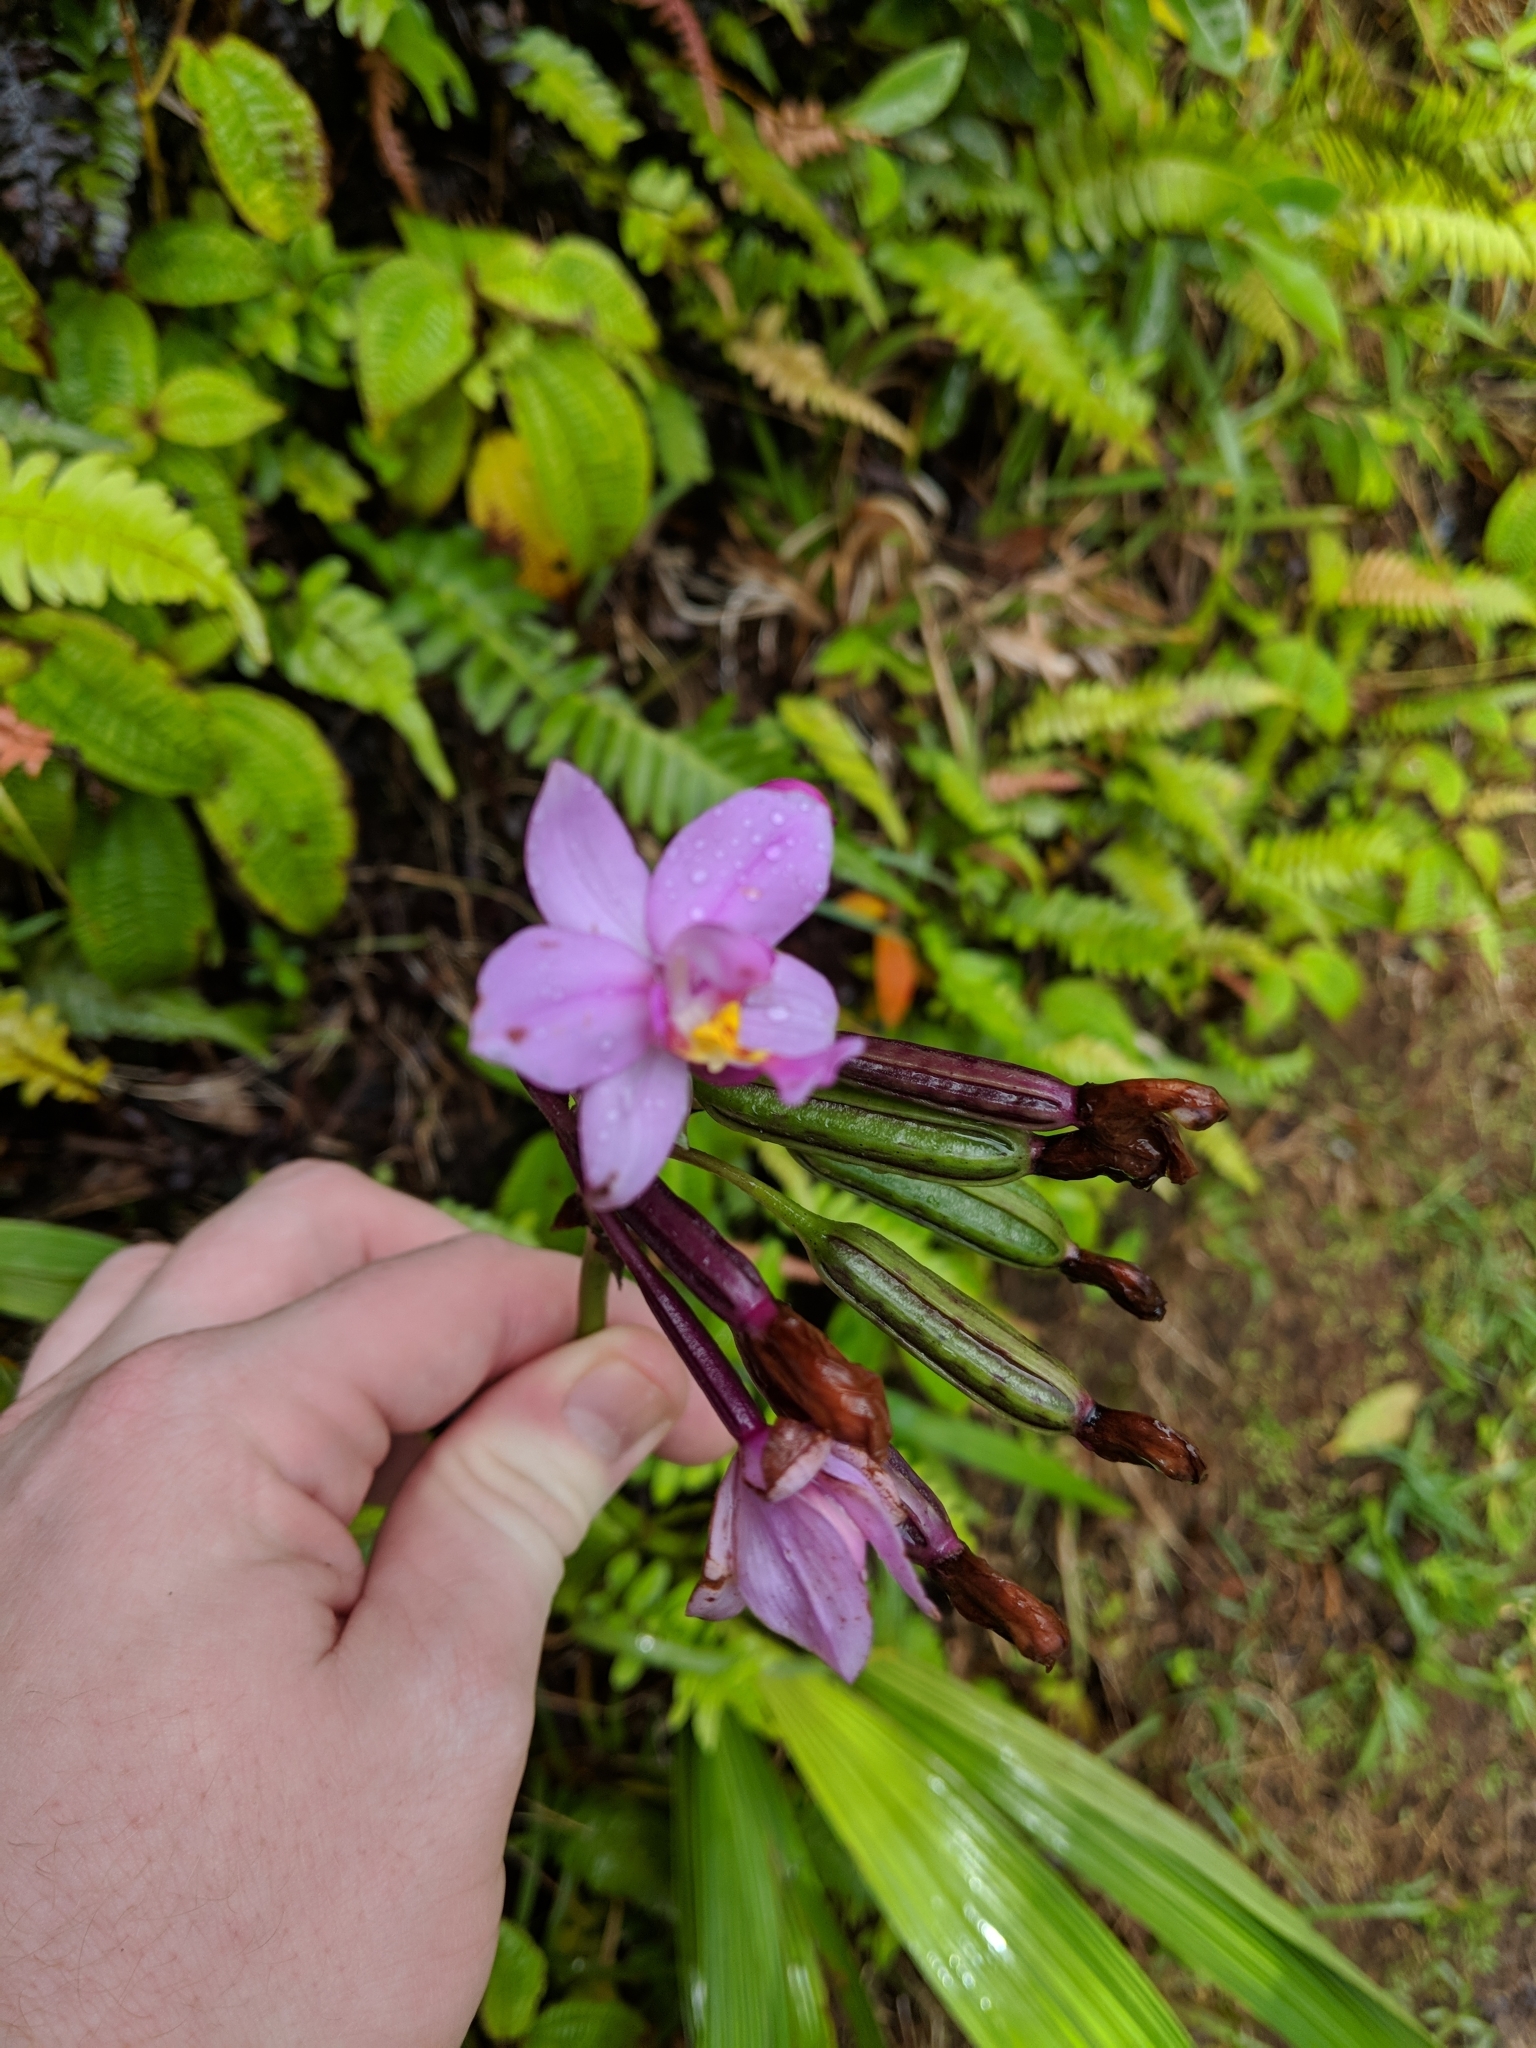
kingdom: Plantae
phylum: Tracheophyta
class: Liliopsida
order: Asparagales
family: Orchidaceae
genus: Spathoglottis
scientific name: Spathoglottis plicata
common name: Philippine ground orchid
